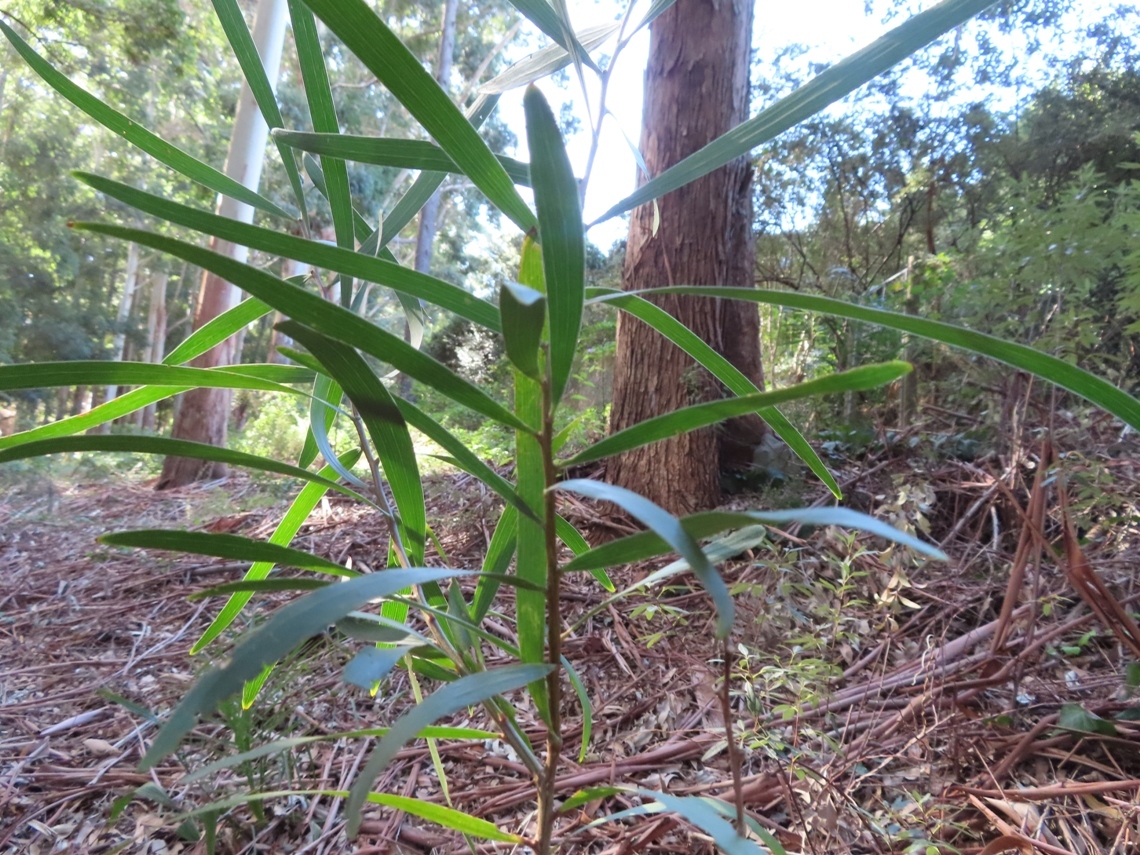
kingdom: Plantae
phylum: Tracheophyta
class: Magnoliopsida
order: Fabales
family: Fabaceae
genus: Acacia
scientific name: Acacia longifolia
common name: Sydney golden wattle
